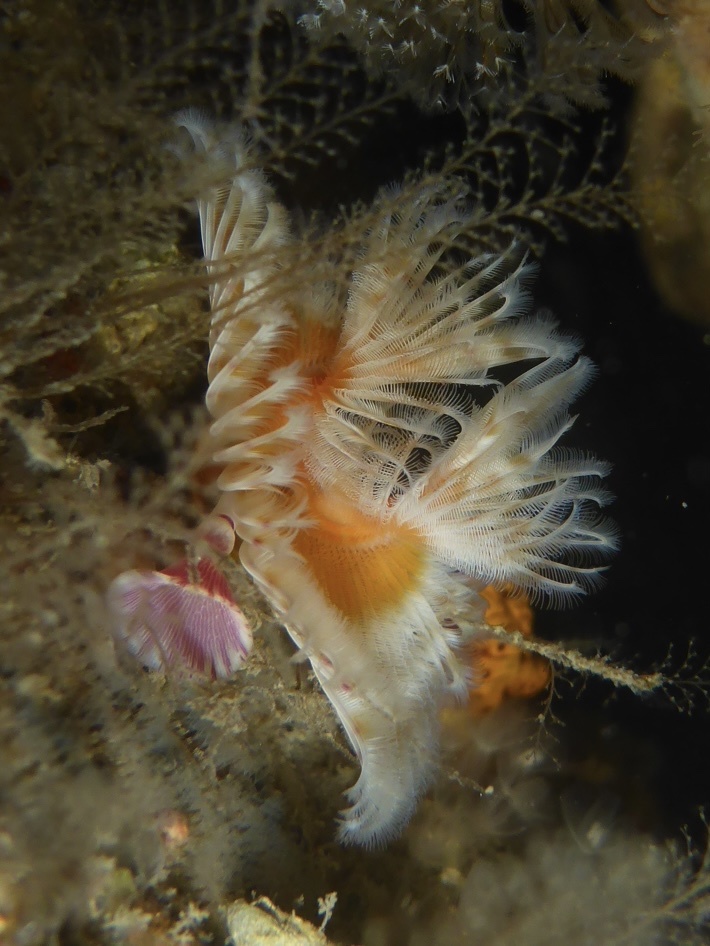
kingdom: Animalia
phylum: Annelida
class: Polychaeta
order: Sabellida
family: Serpulidae
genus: Serpula
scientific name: Serpula columbiana
